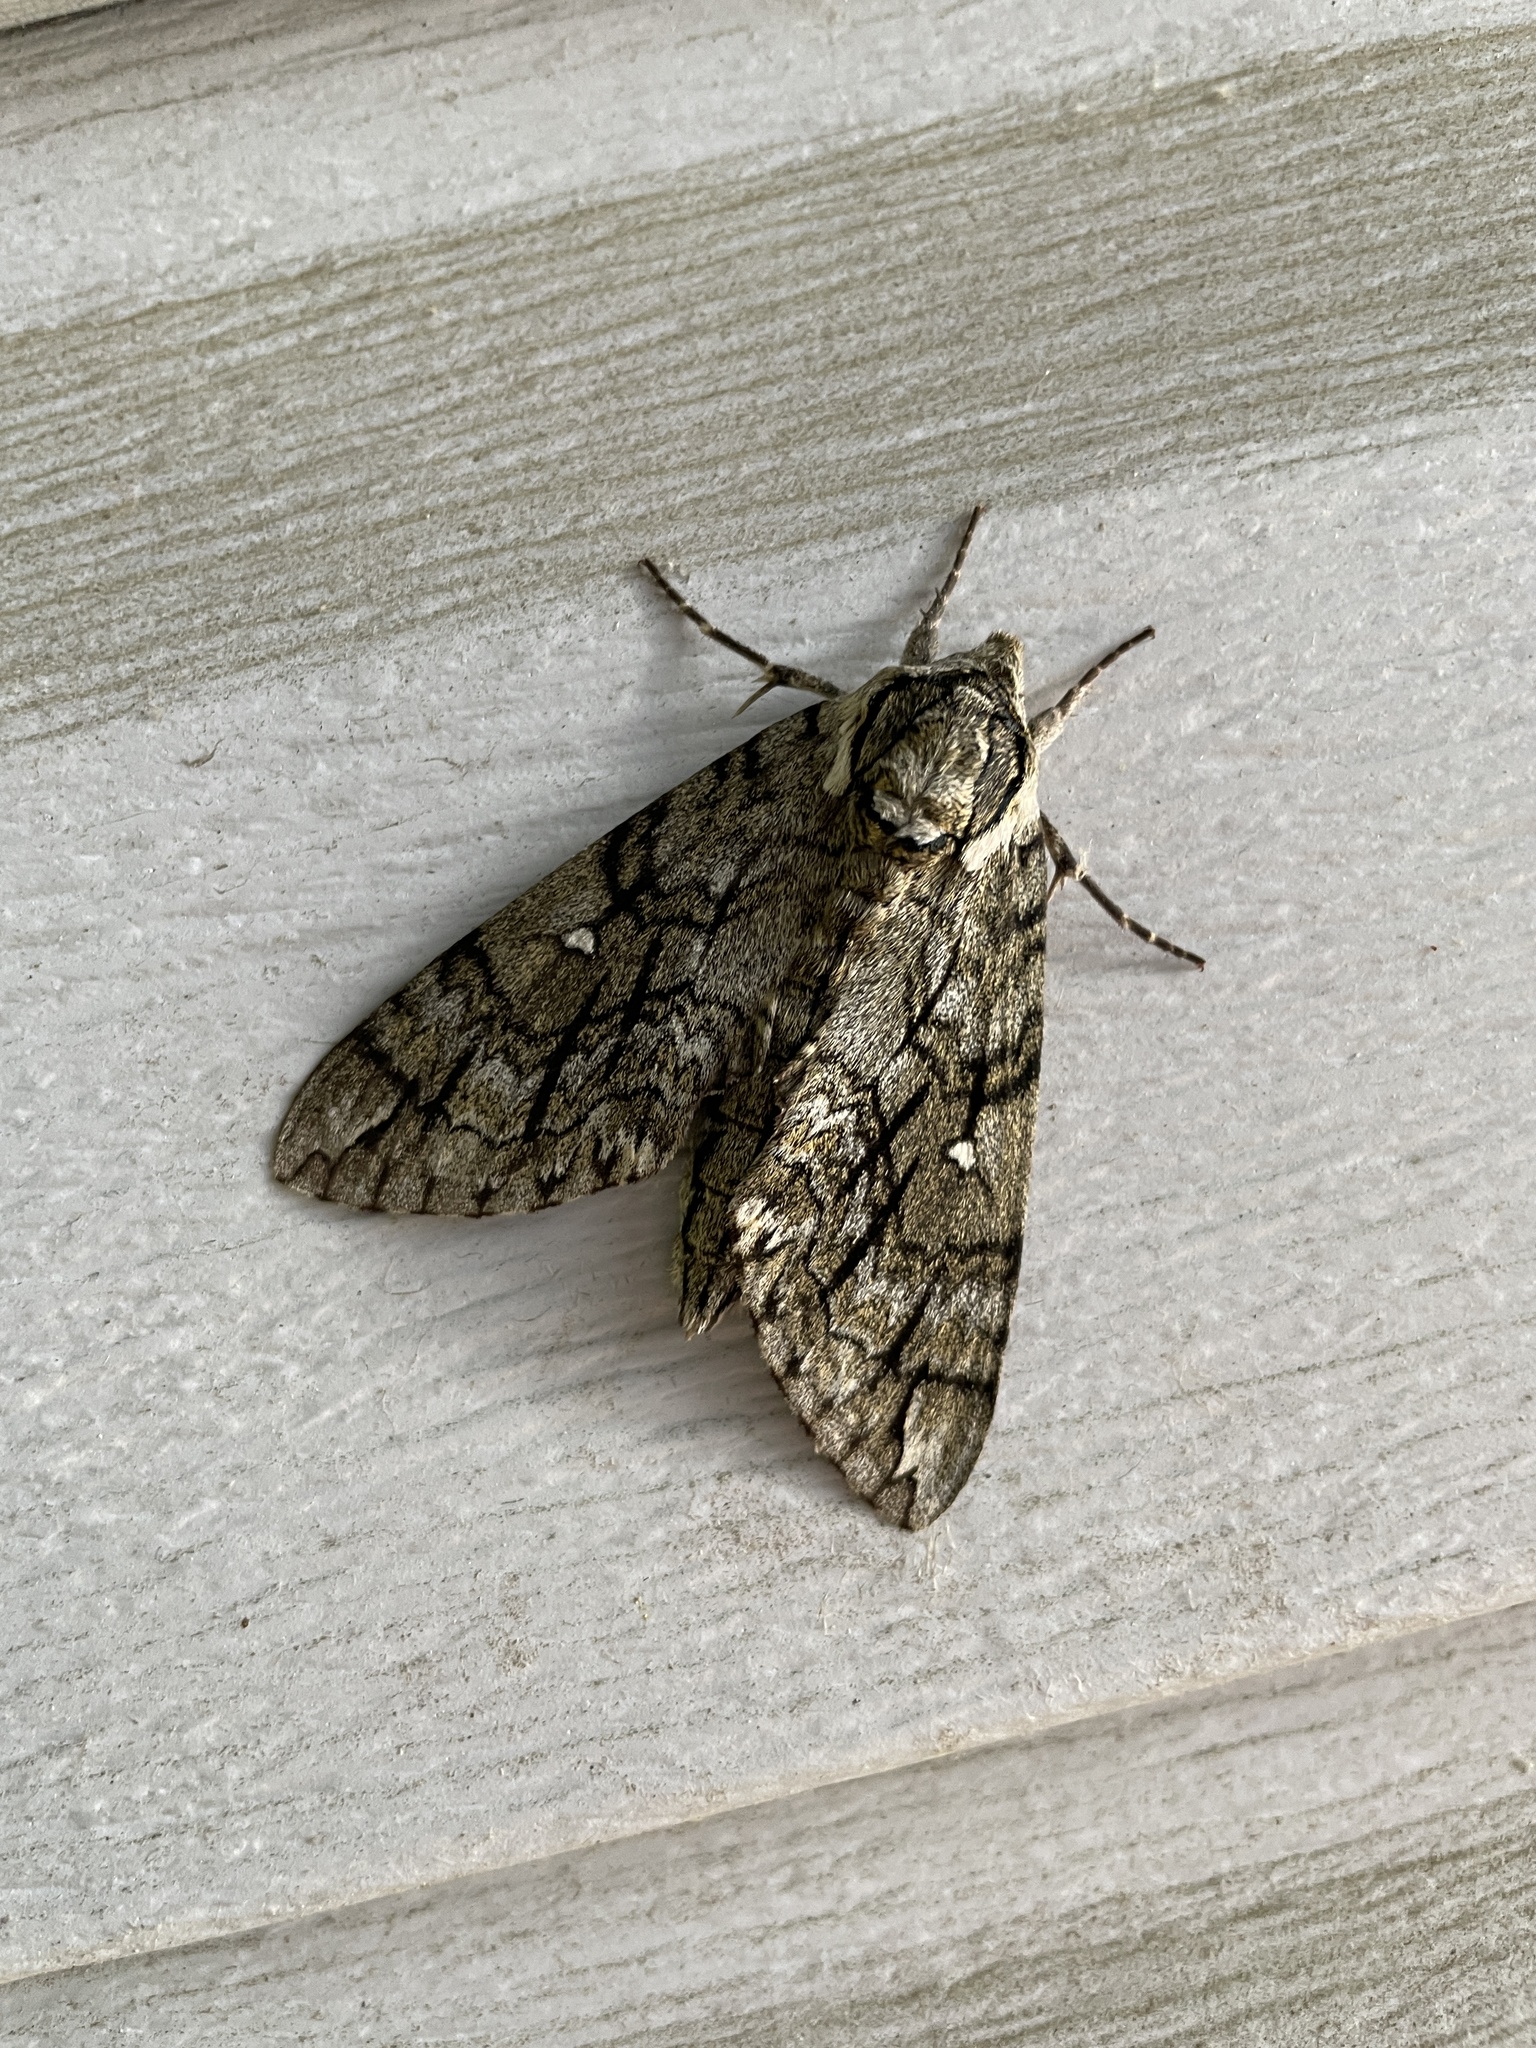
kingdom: Animalia
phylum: Arthropoda
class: Insecta
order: Lepidoptera
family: Sphingidae
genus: Ceratomia
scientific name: Ceratomia undulosa
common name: Waved sphinx
